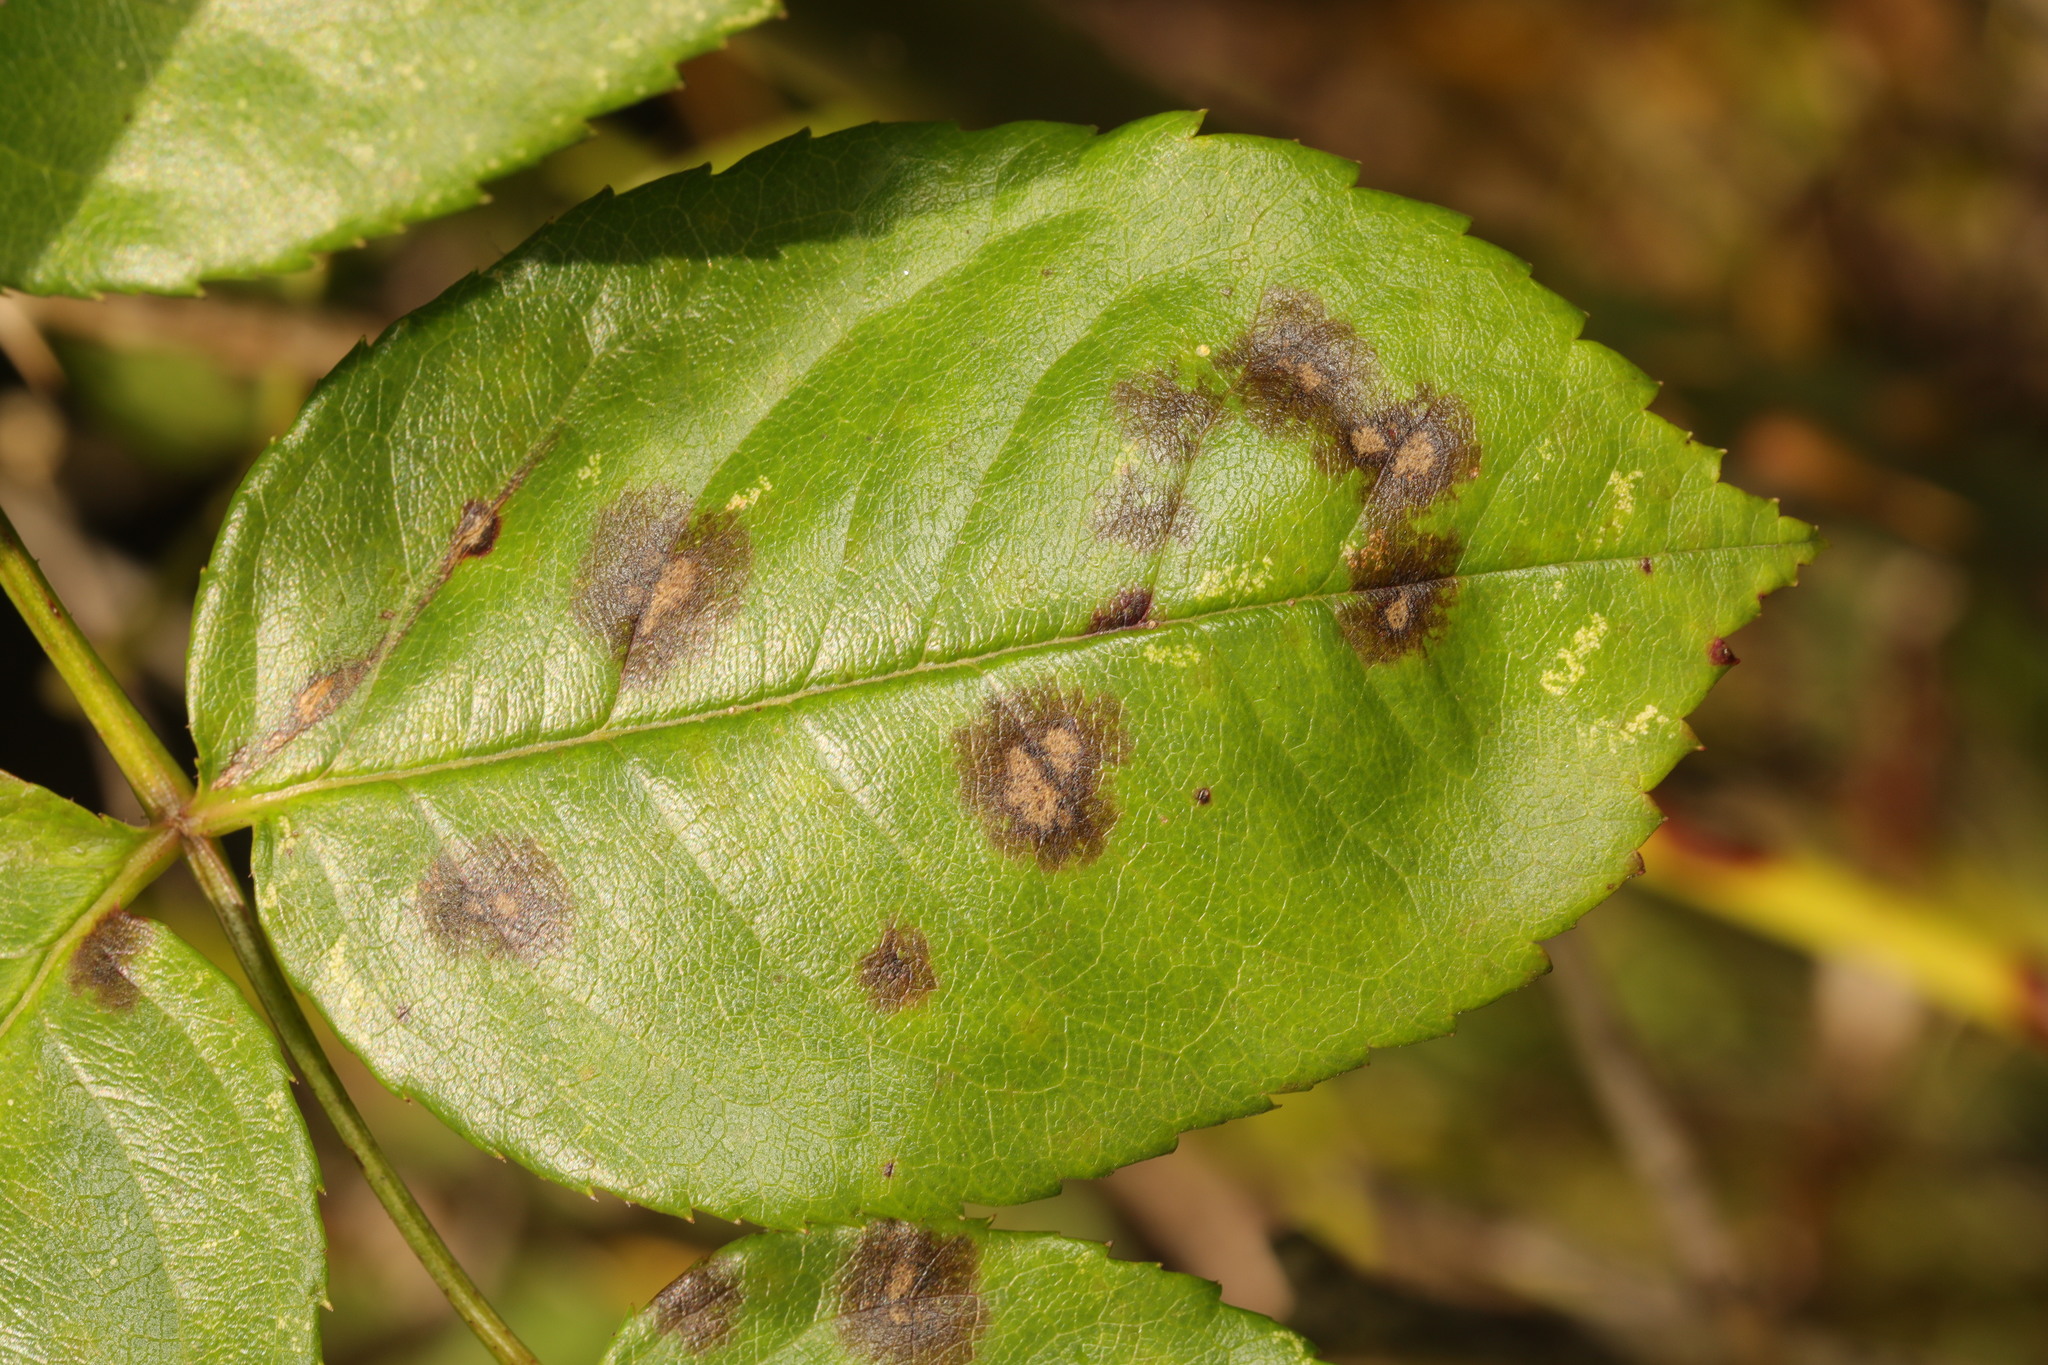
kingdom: Fungi
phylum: Ascomycota
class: Leotiomycetes
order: Helotiales
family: Drepanopezizaceae
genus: Diplocarpon
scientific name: Diplocarpon rosae
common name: Rose black-spot
